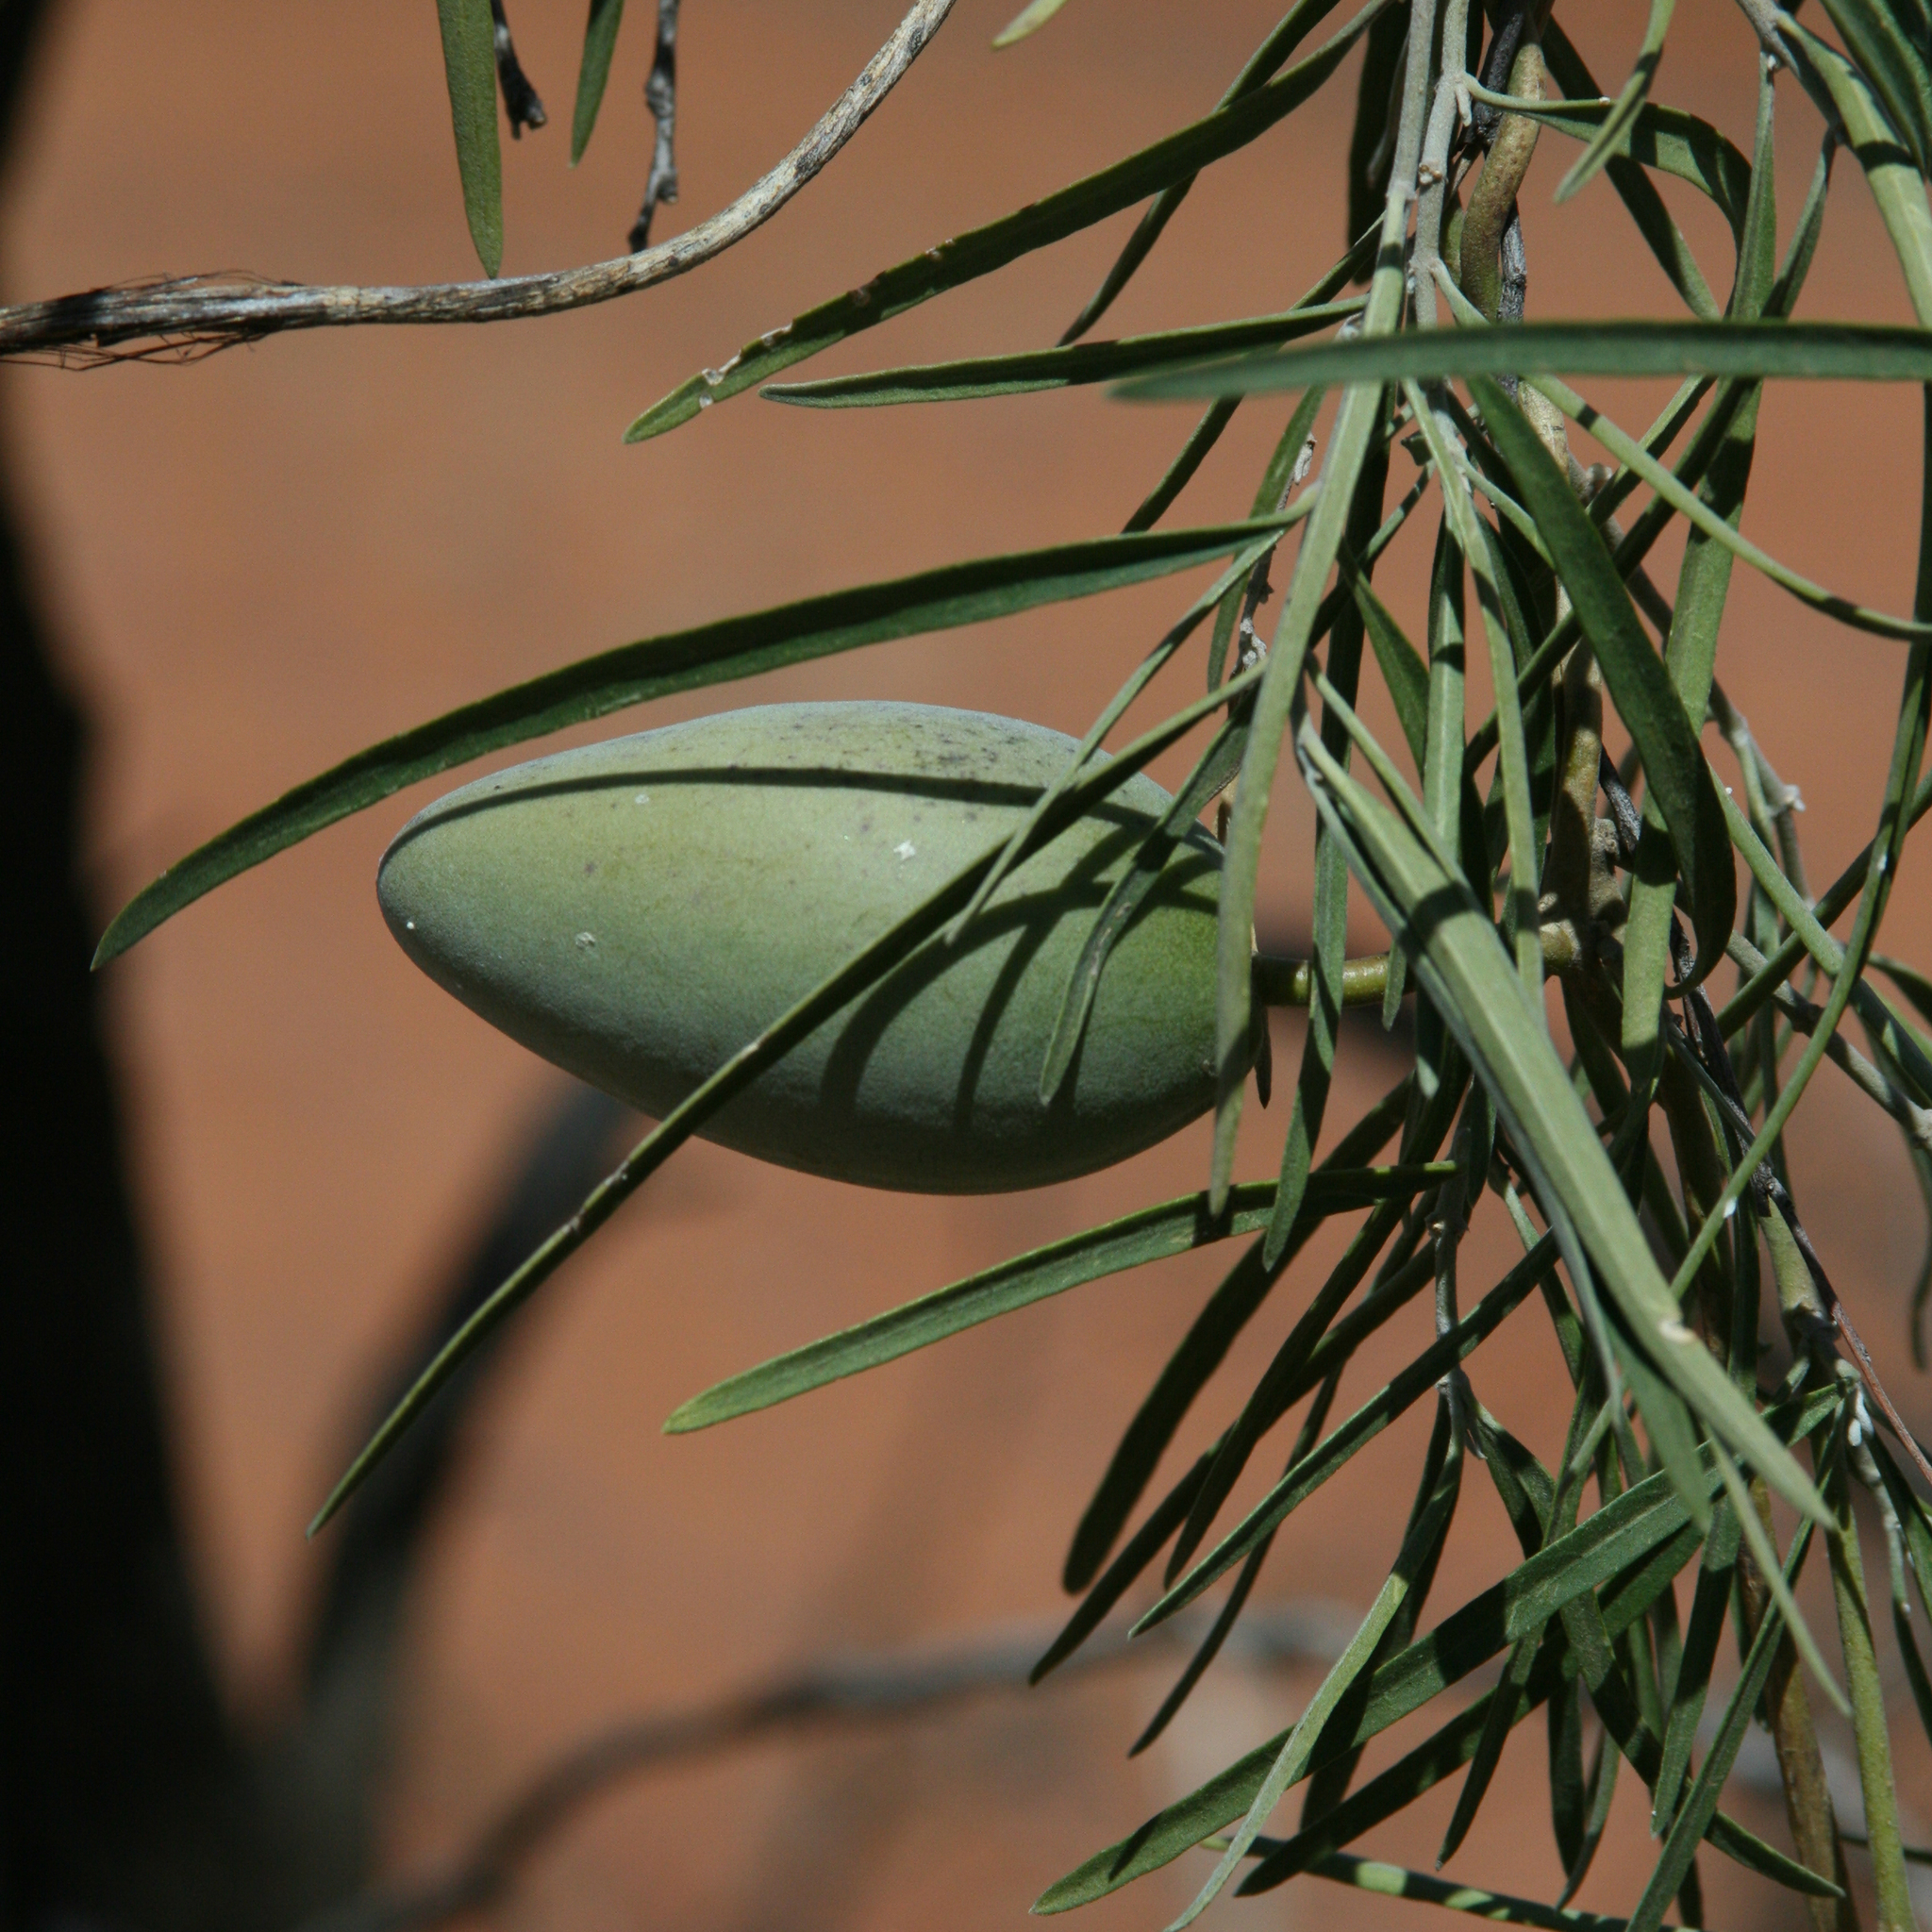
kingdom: Plantae
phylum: Tracheophyta
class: Magnoliopsida
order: Gentianales
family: Apocynaceae
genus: Leichhardtia
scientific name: Leichhardtia australis
